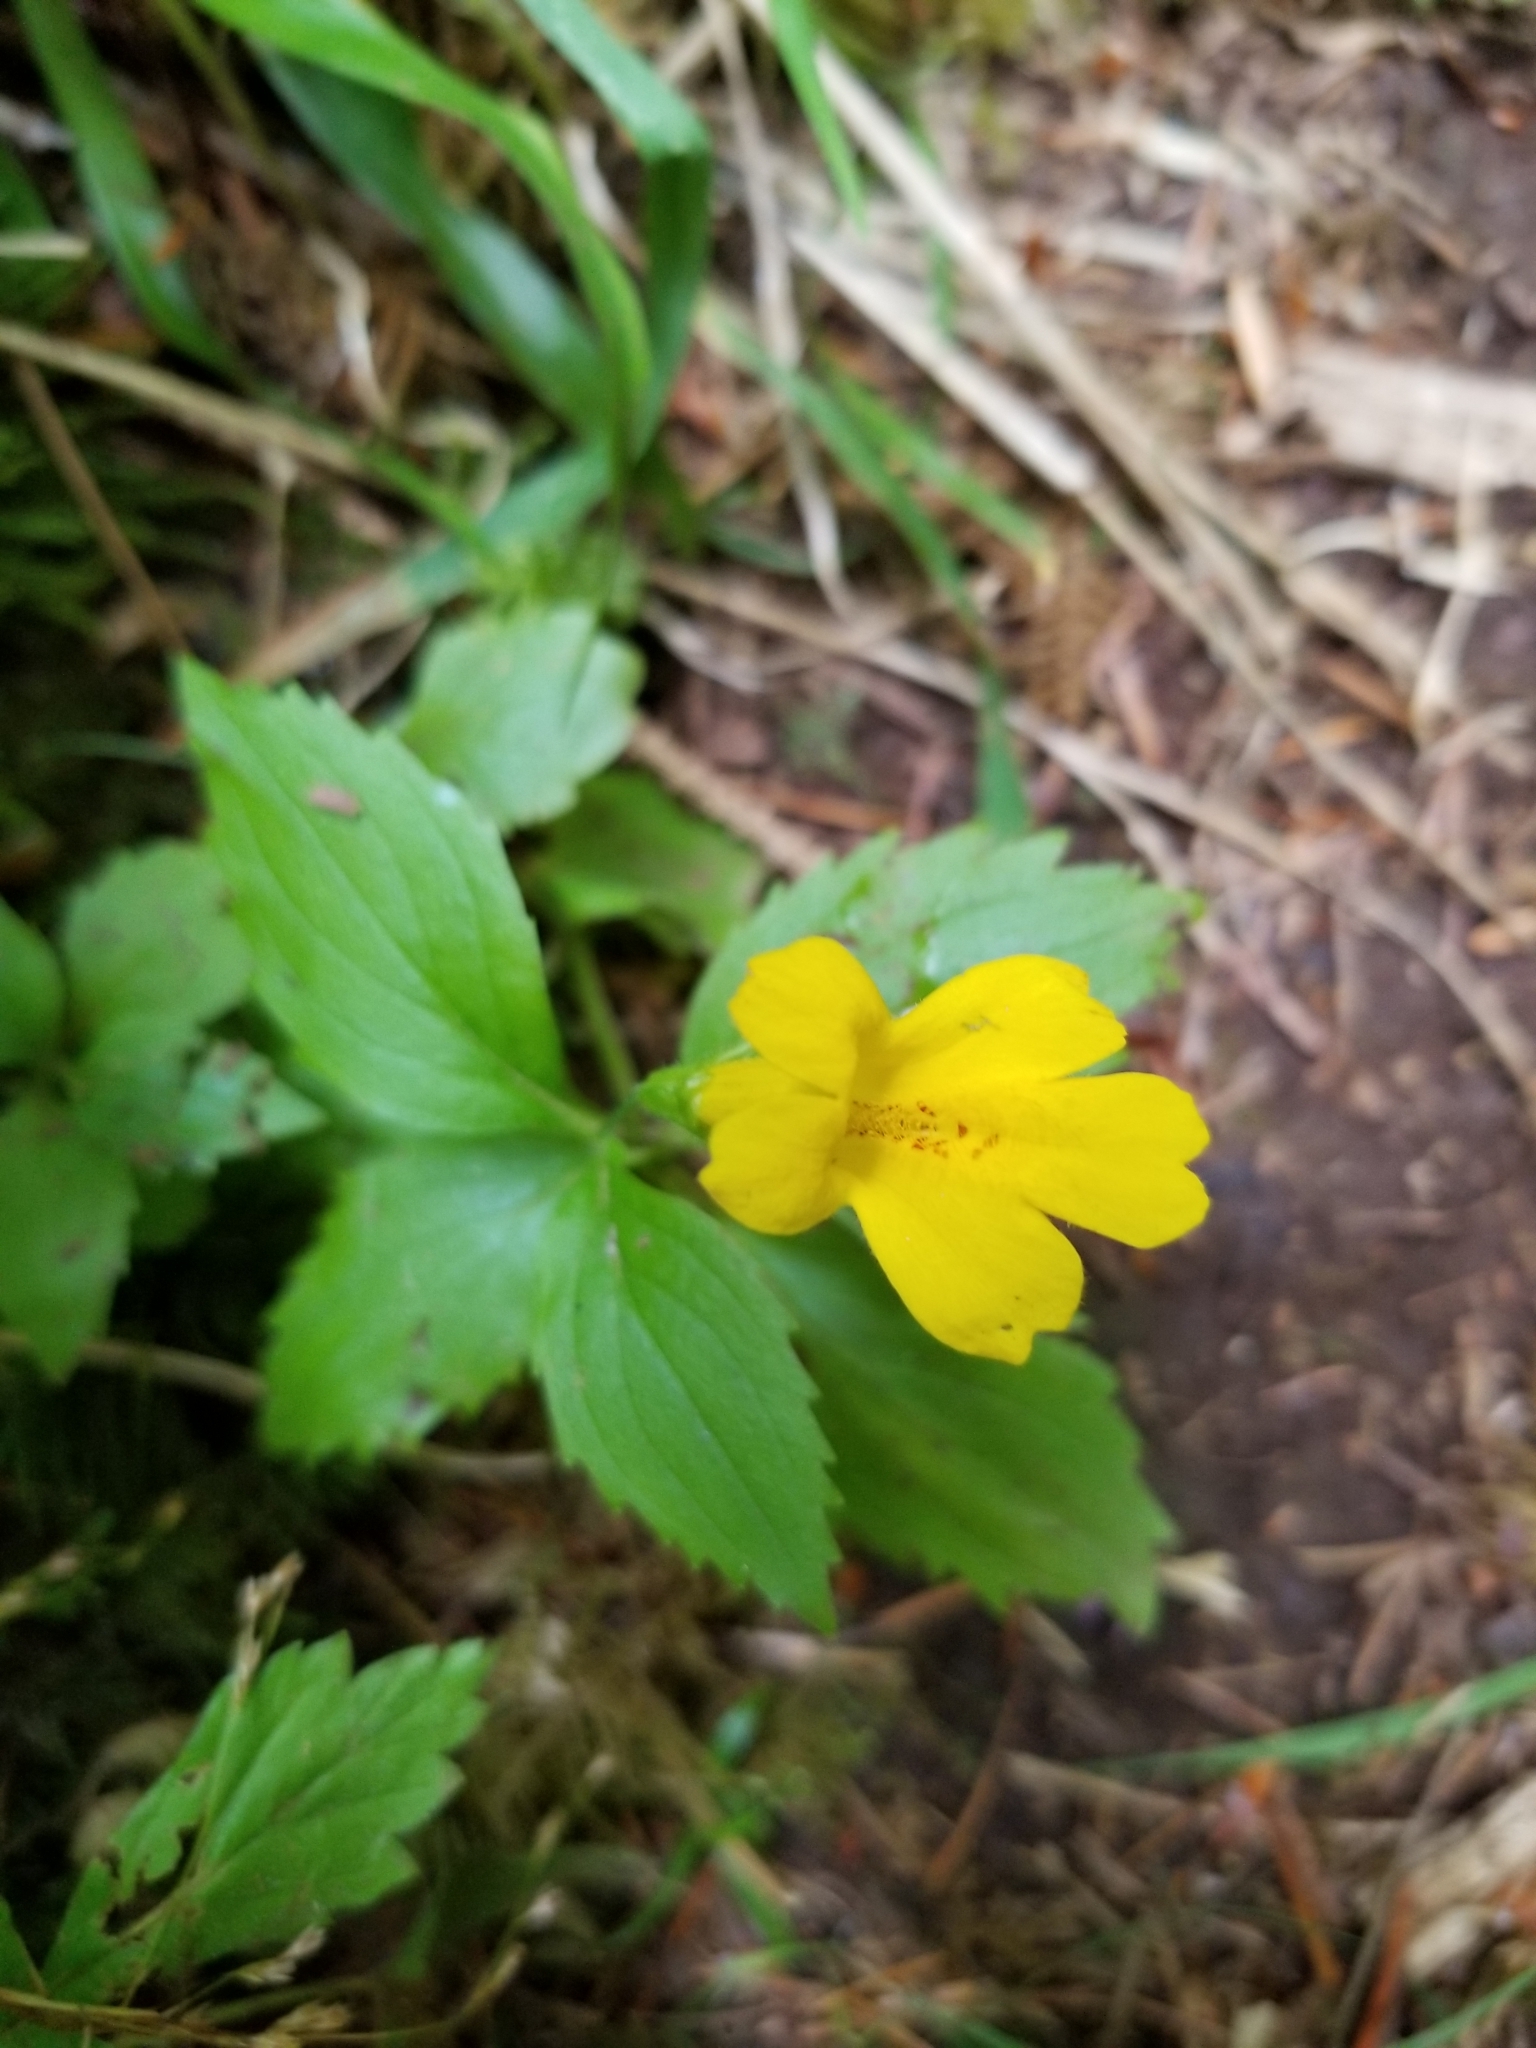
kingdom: Plantae
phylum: Tracheophyta
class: Magnoliopsida
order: Lamiales
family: Phrymaceae
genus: Erythranthe
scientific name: Erythranthe dentata
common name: Coastal monkeyflower
